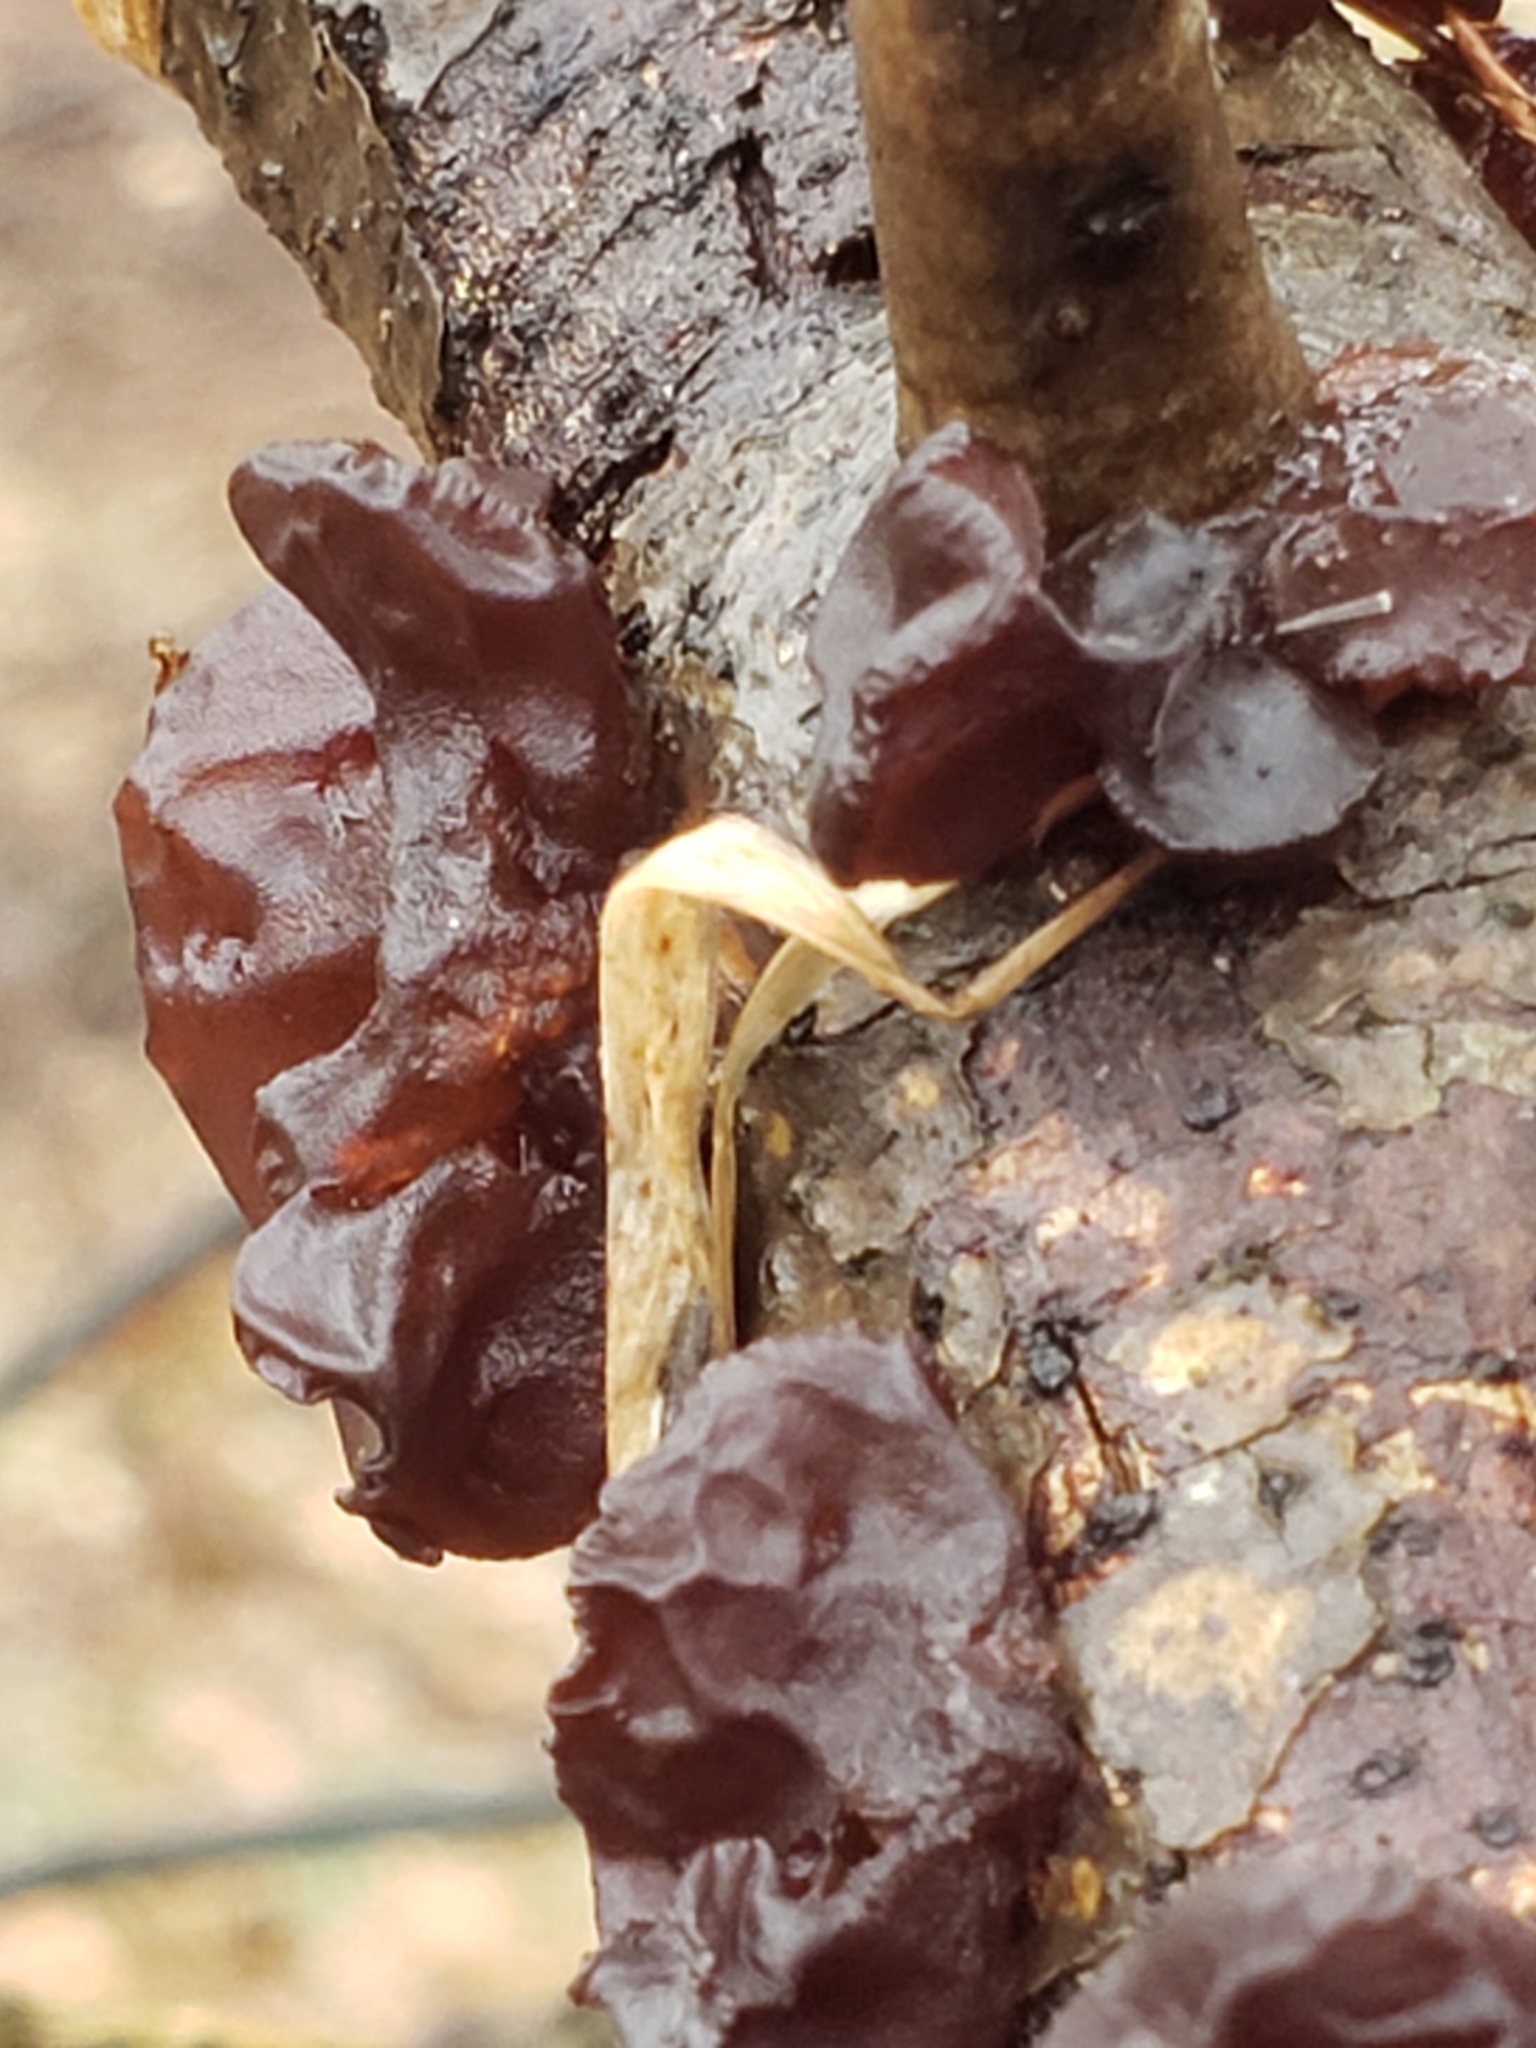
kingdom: Fungi
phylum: Basidiomycota
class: Agaricomycetes
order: Auriculariales
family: Auriculariaceae
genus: Exidia
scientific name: Exidia
